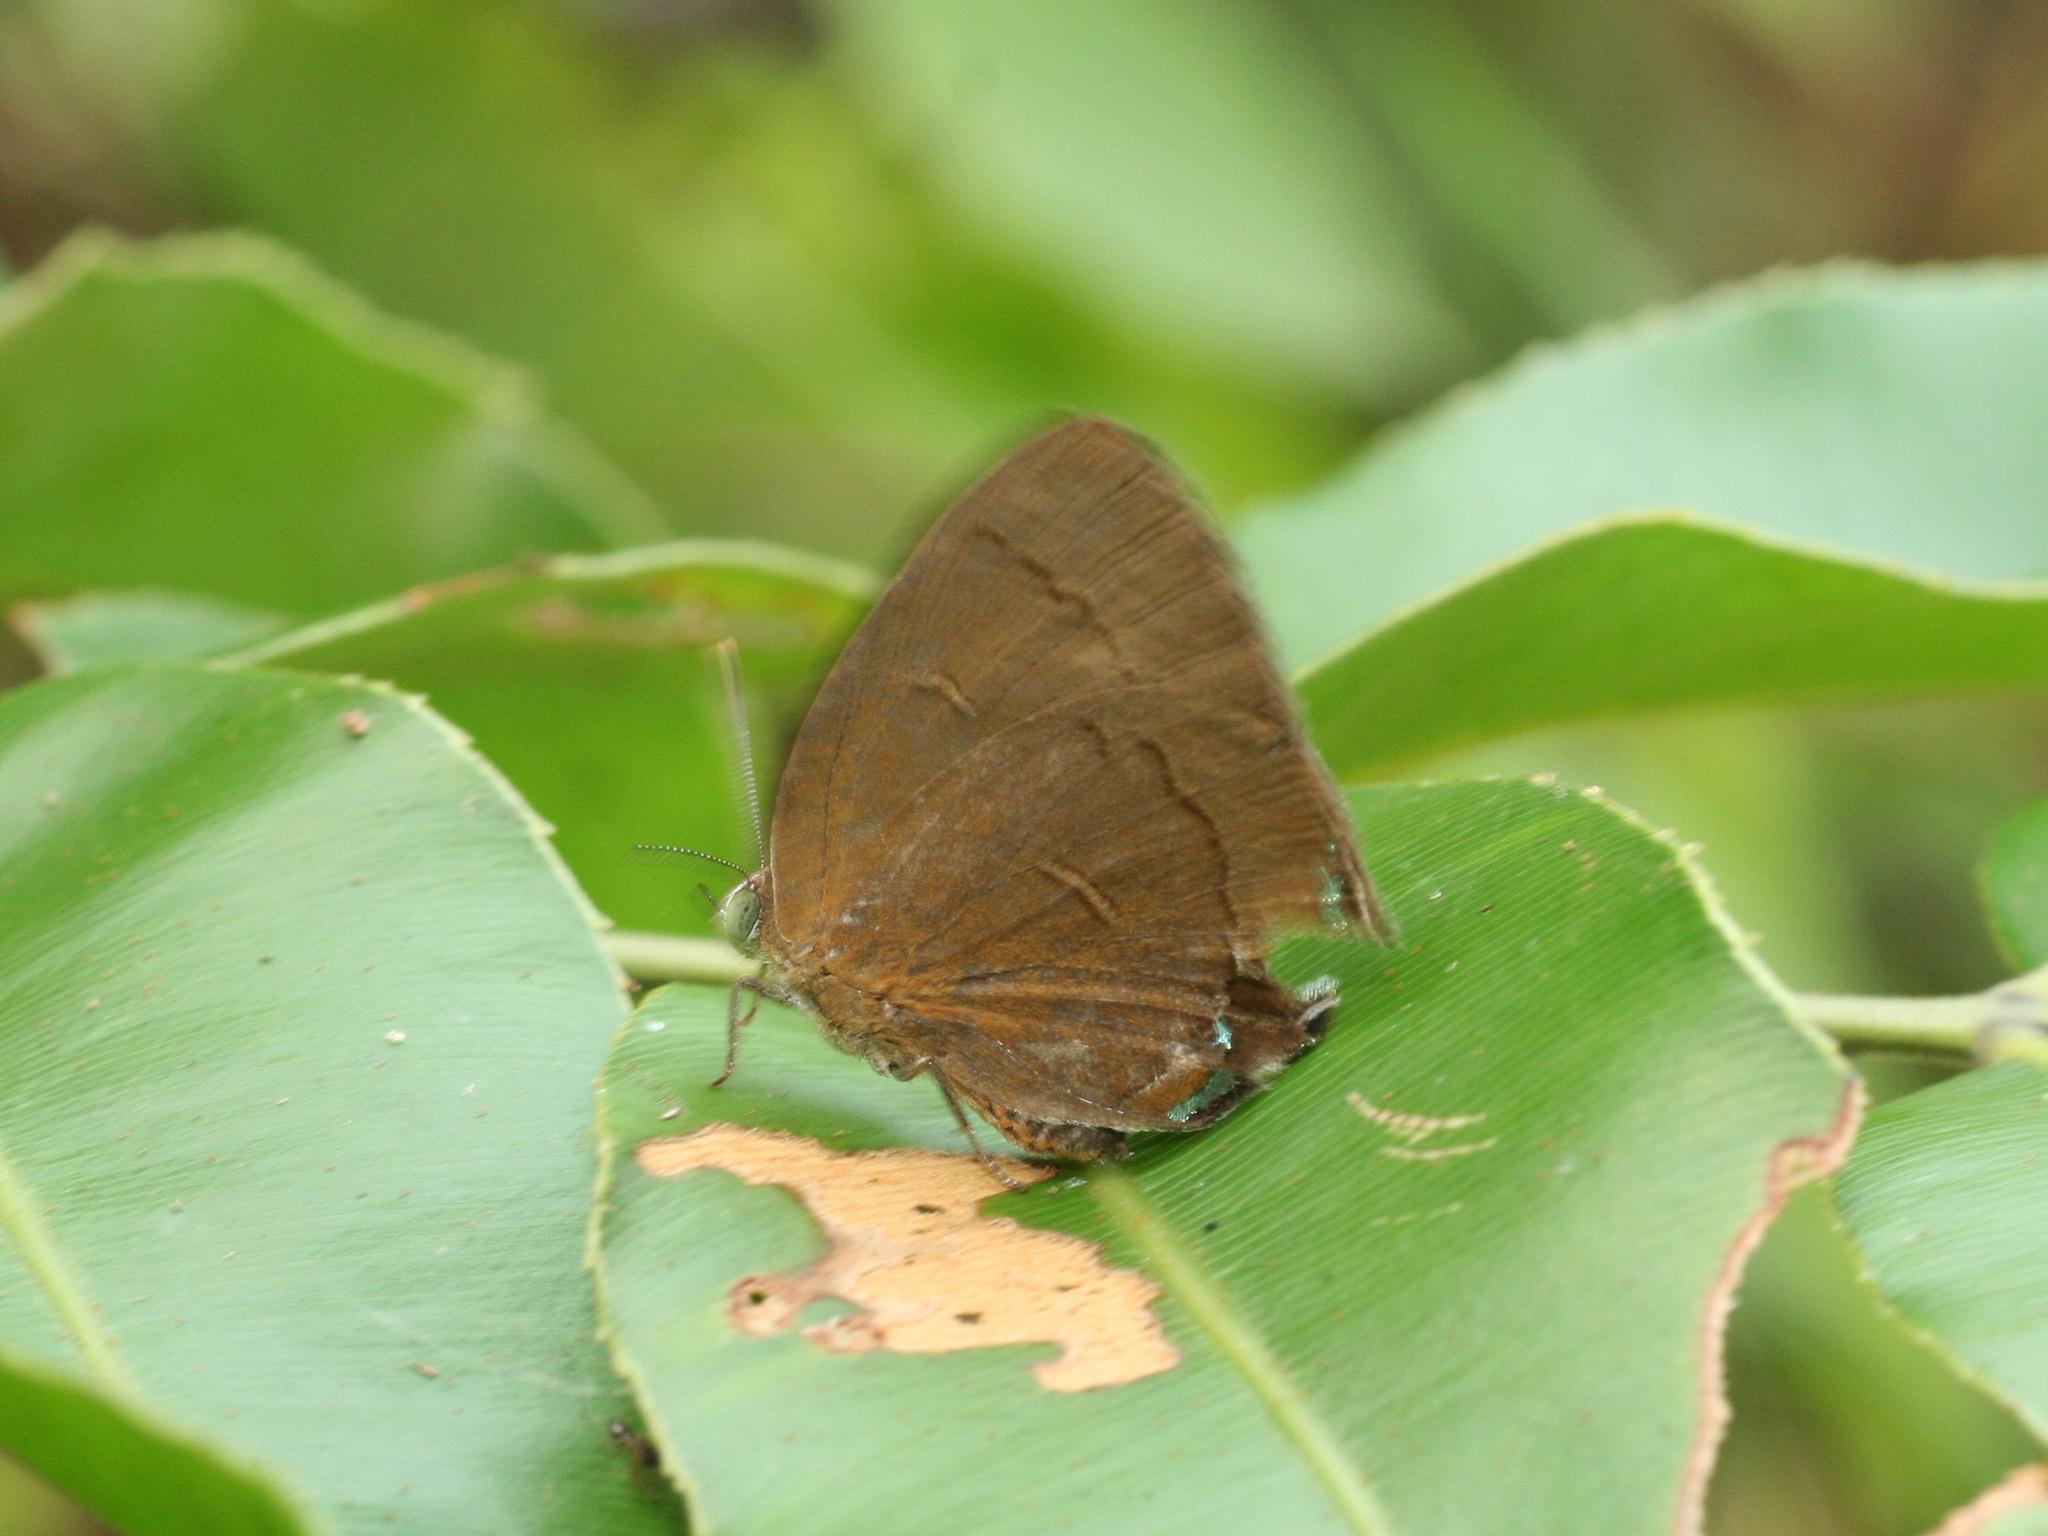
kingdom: Animalia
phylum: Arthropoda
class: Insecta
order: Lepidoptera
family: Lycaenidae
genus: Remelana
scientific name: Remelana jangala
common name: Chocolate royal
